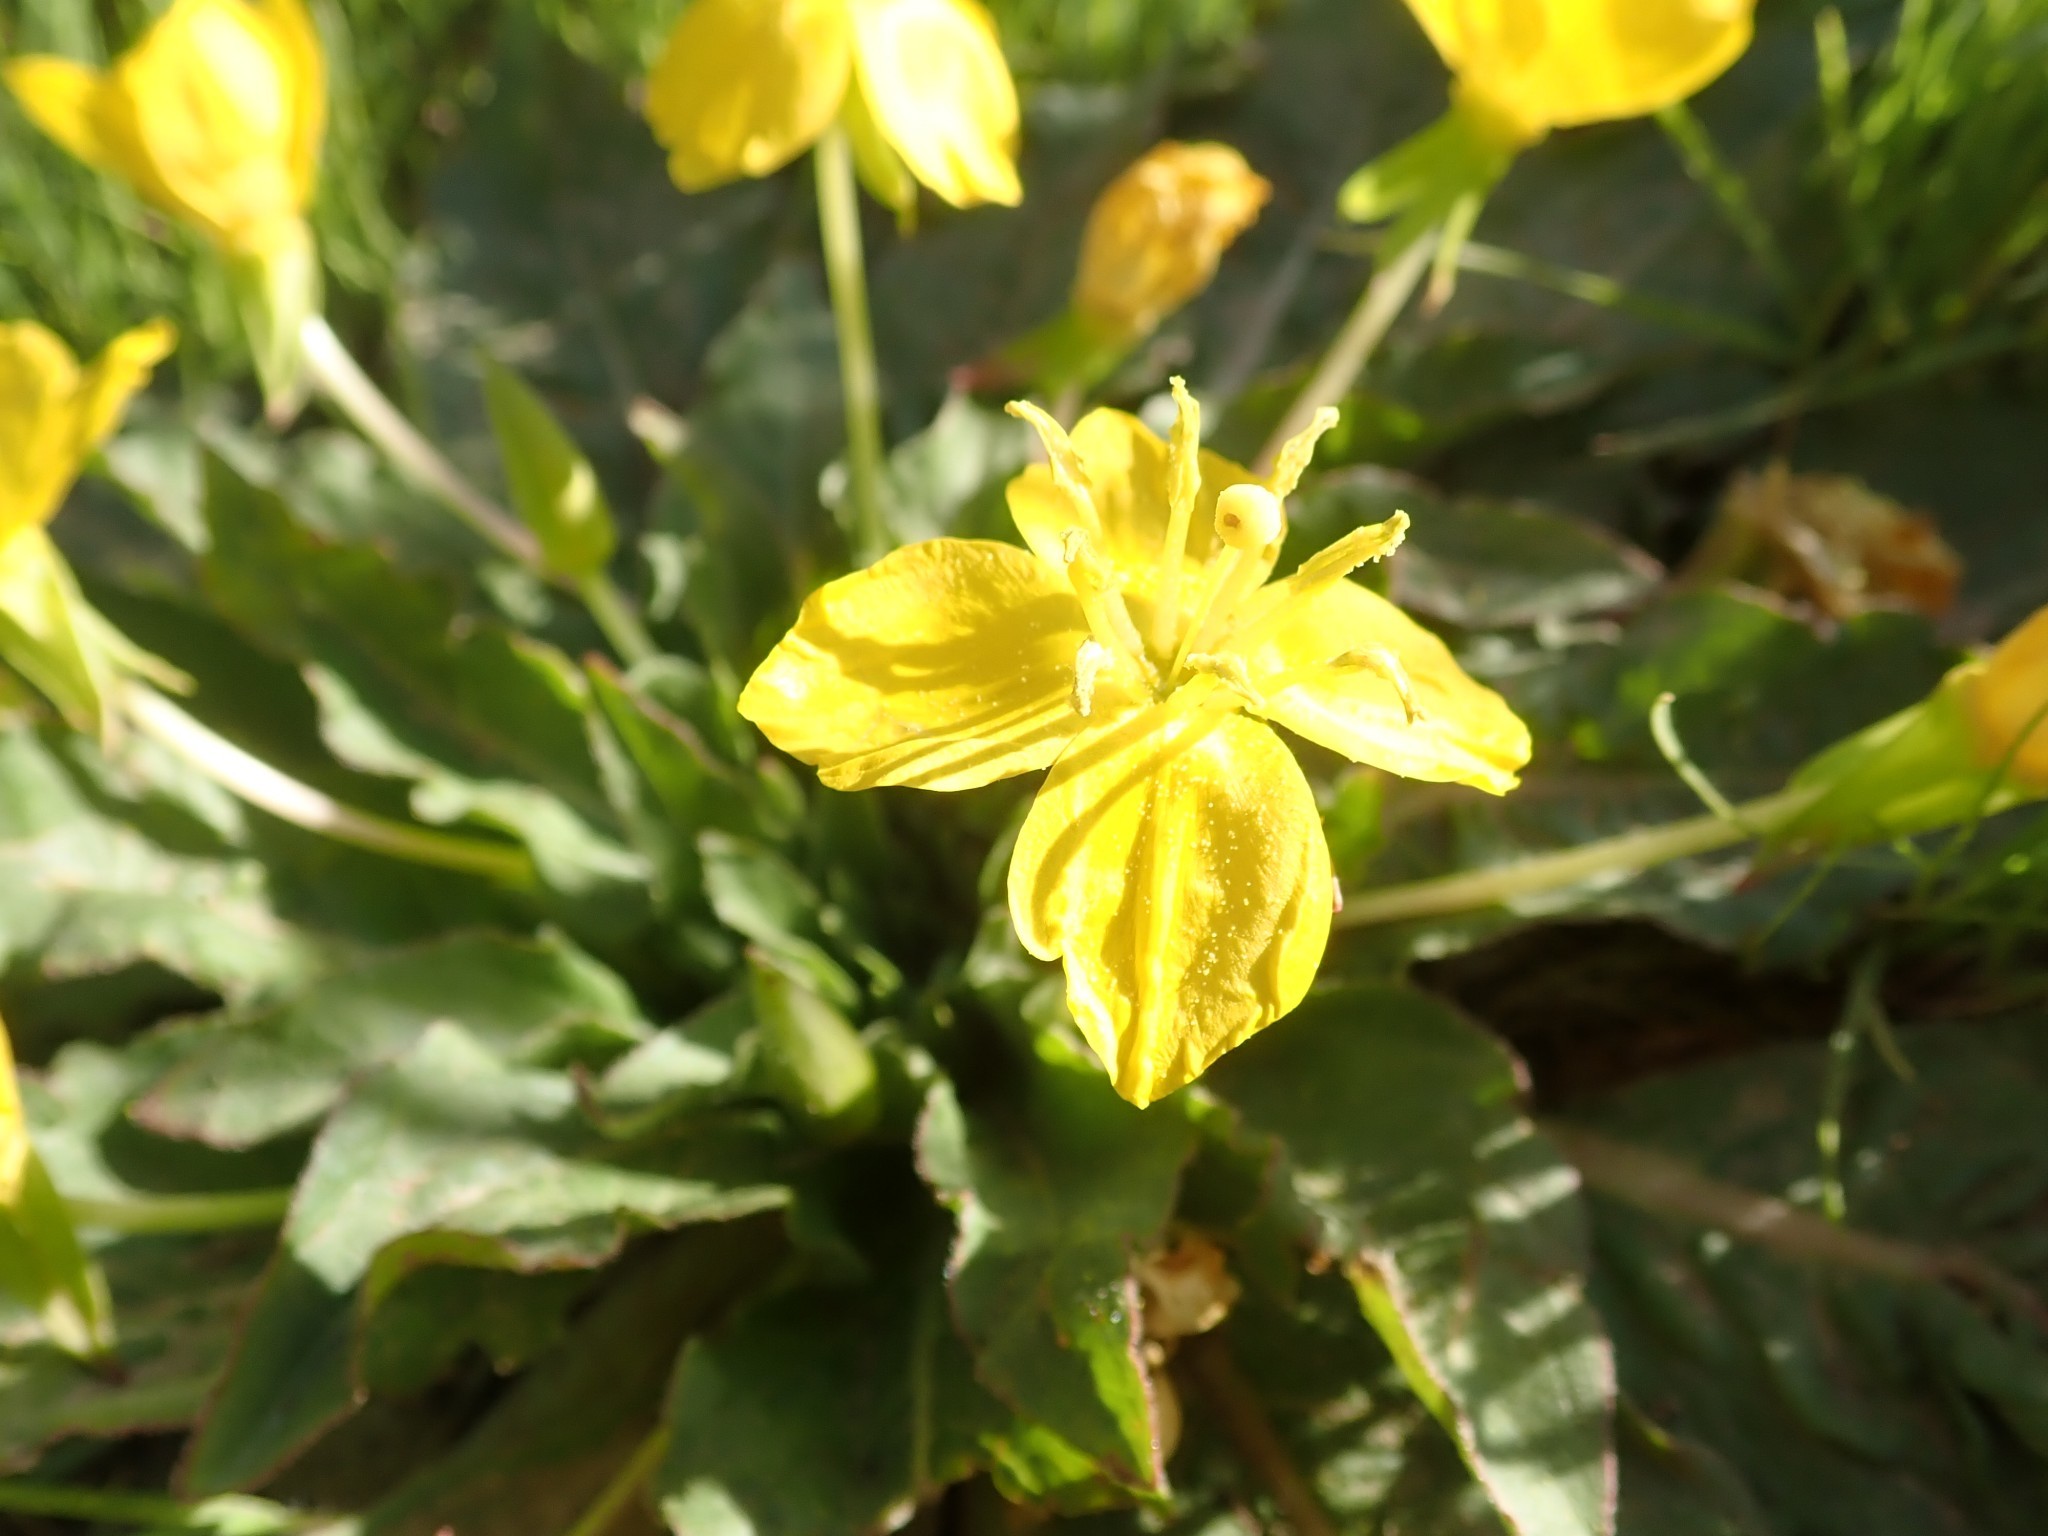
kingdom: Plantae
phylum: Tracheophyta
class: Magnoliopsida
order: Myrtales
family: Onagraceae
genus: Taraxia
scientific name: Taraxia ovata
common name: Goldeneggs
